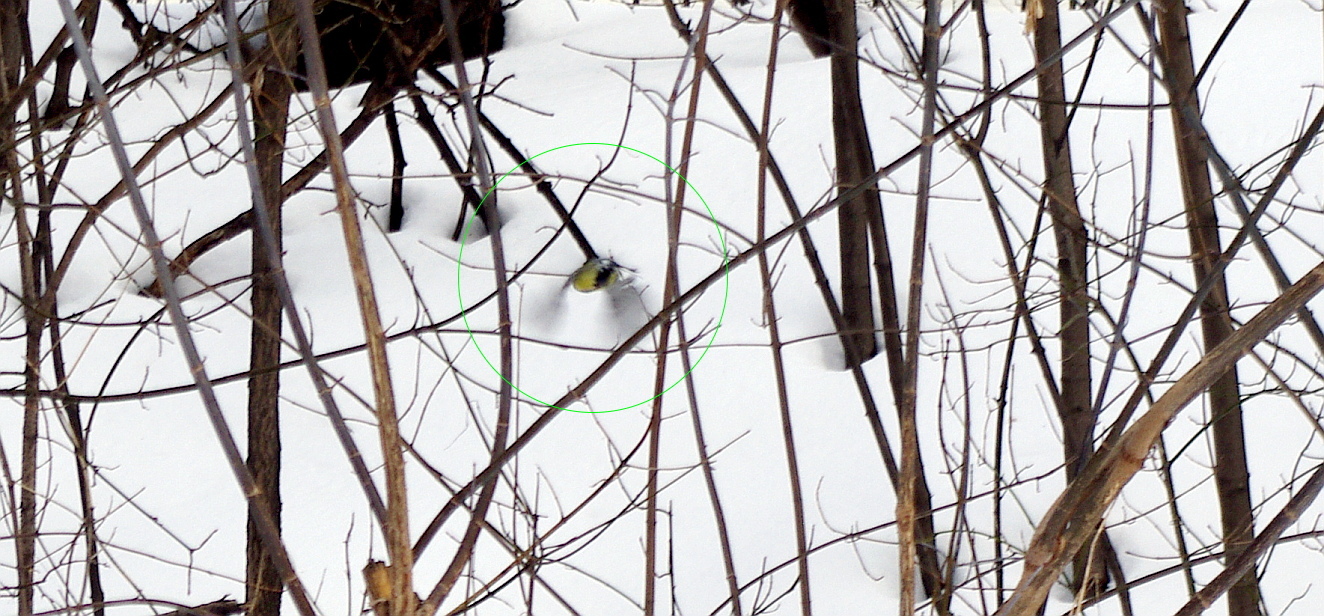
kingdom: Animalia
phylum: Chordata
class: Aves
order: Passeriformes
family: Paridae
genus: Parus
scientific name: Parus major
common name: Great tit
